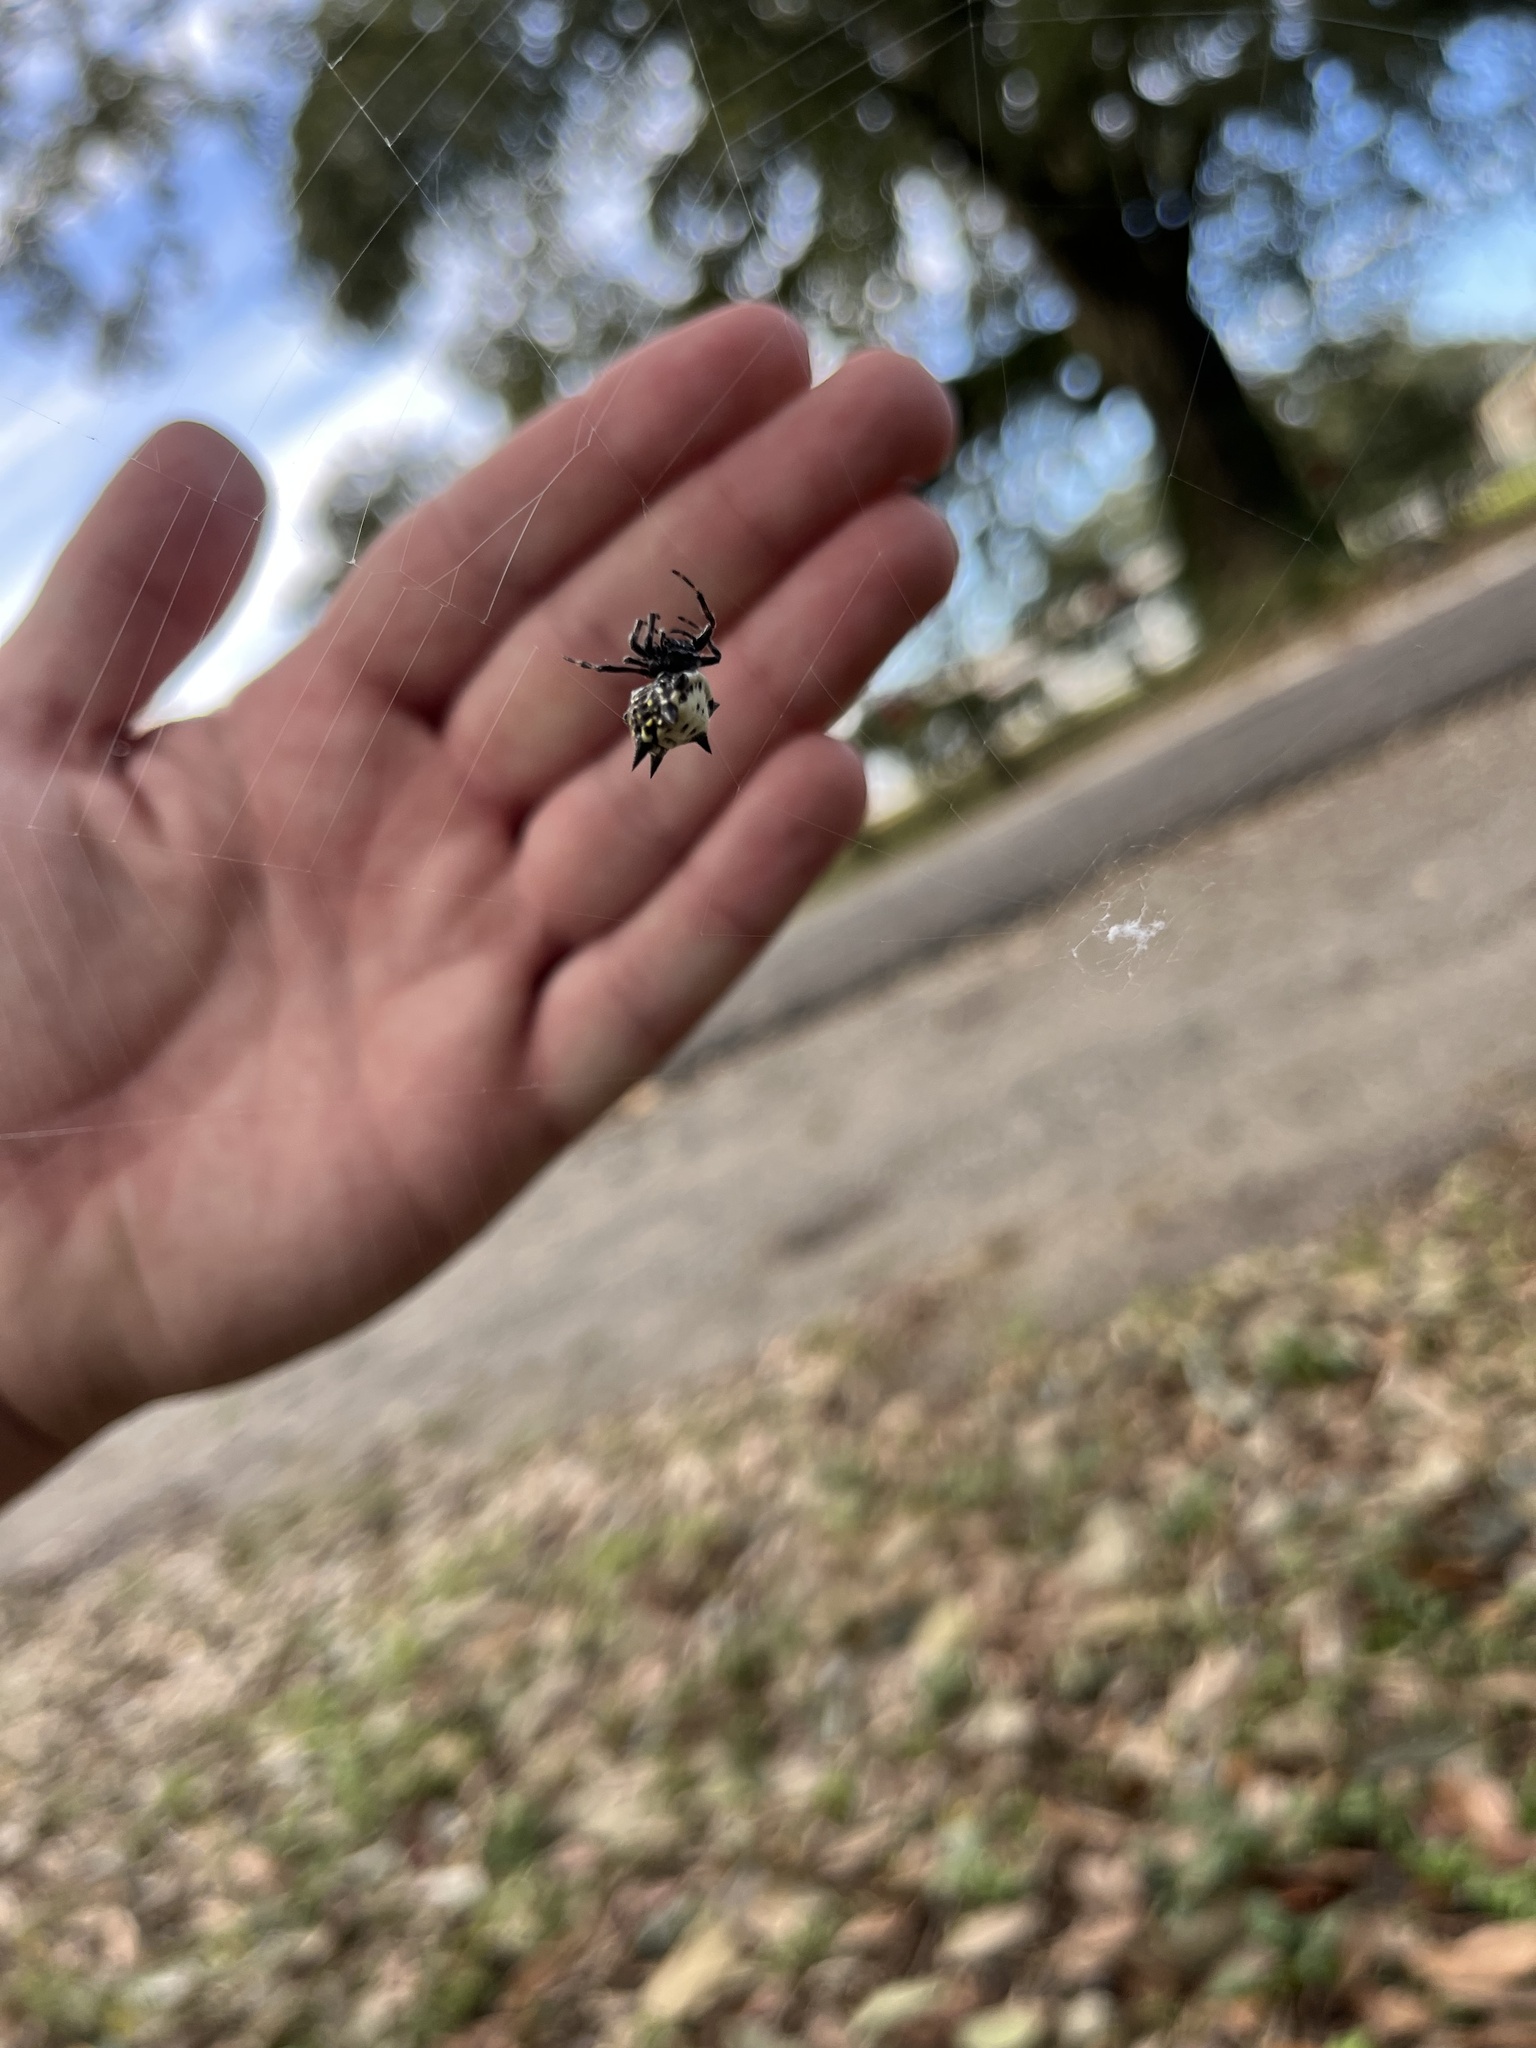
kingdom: Animalia
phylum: Arthropoda
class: Arachnida
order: Araneae
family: Araneidae
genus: Gasteracantha
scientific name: Gasteracantha cancriformis
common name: Orb weavers
